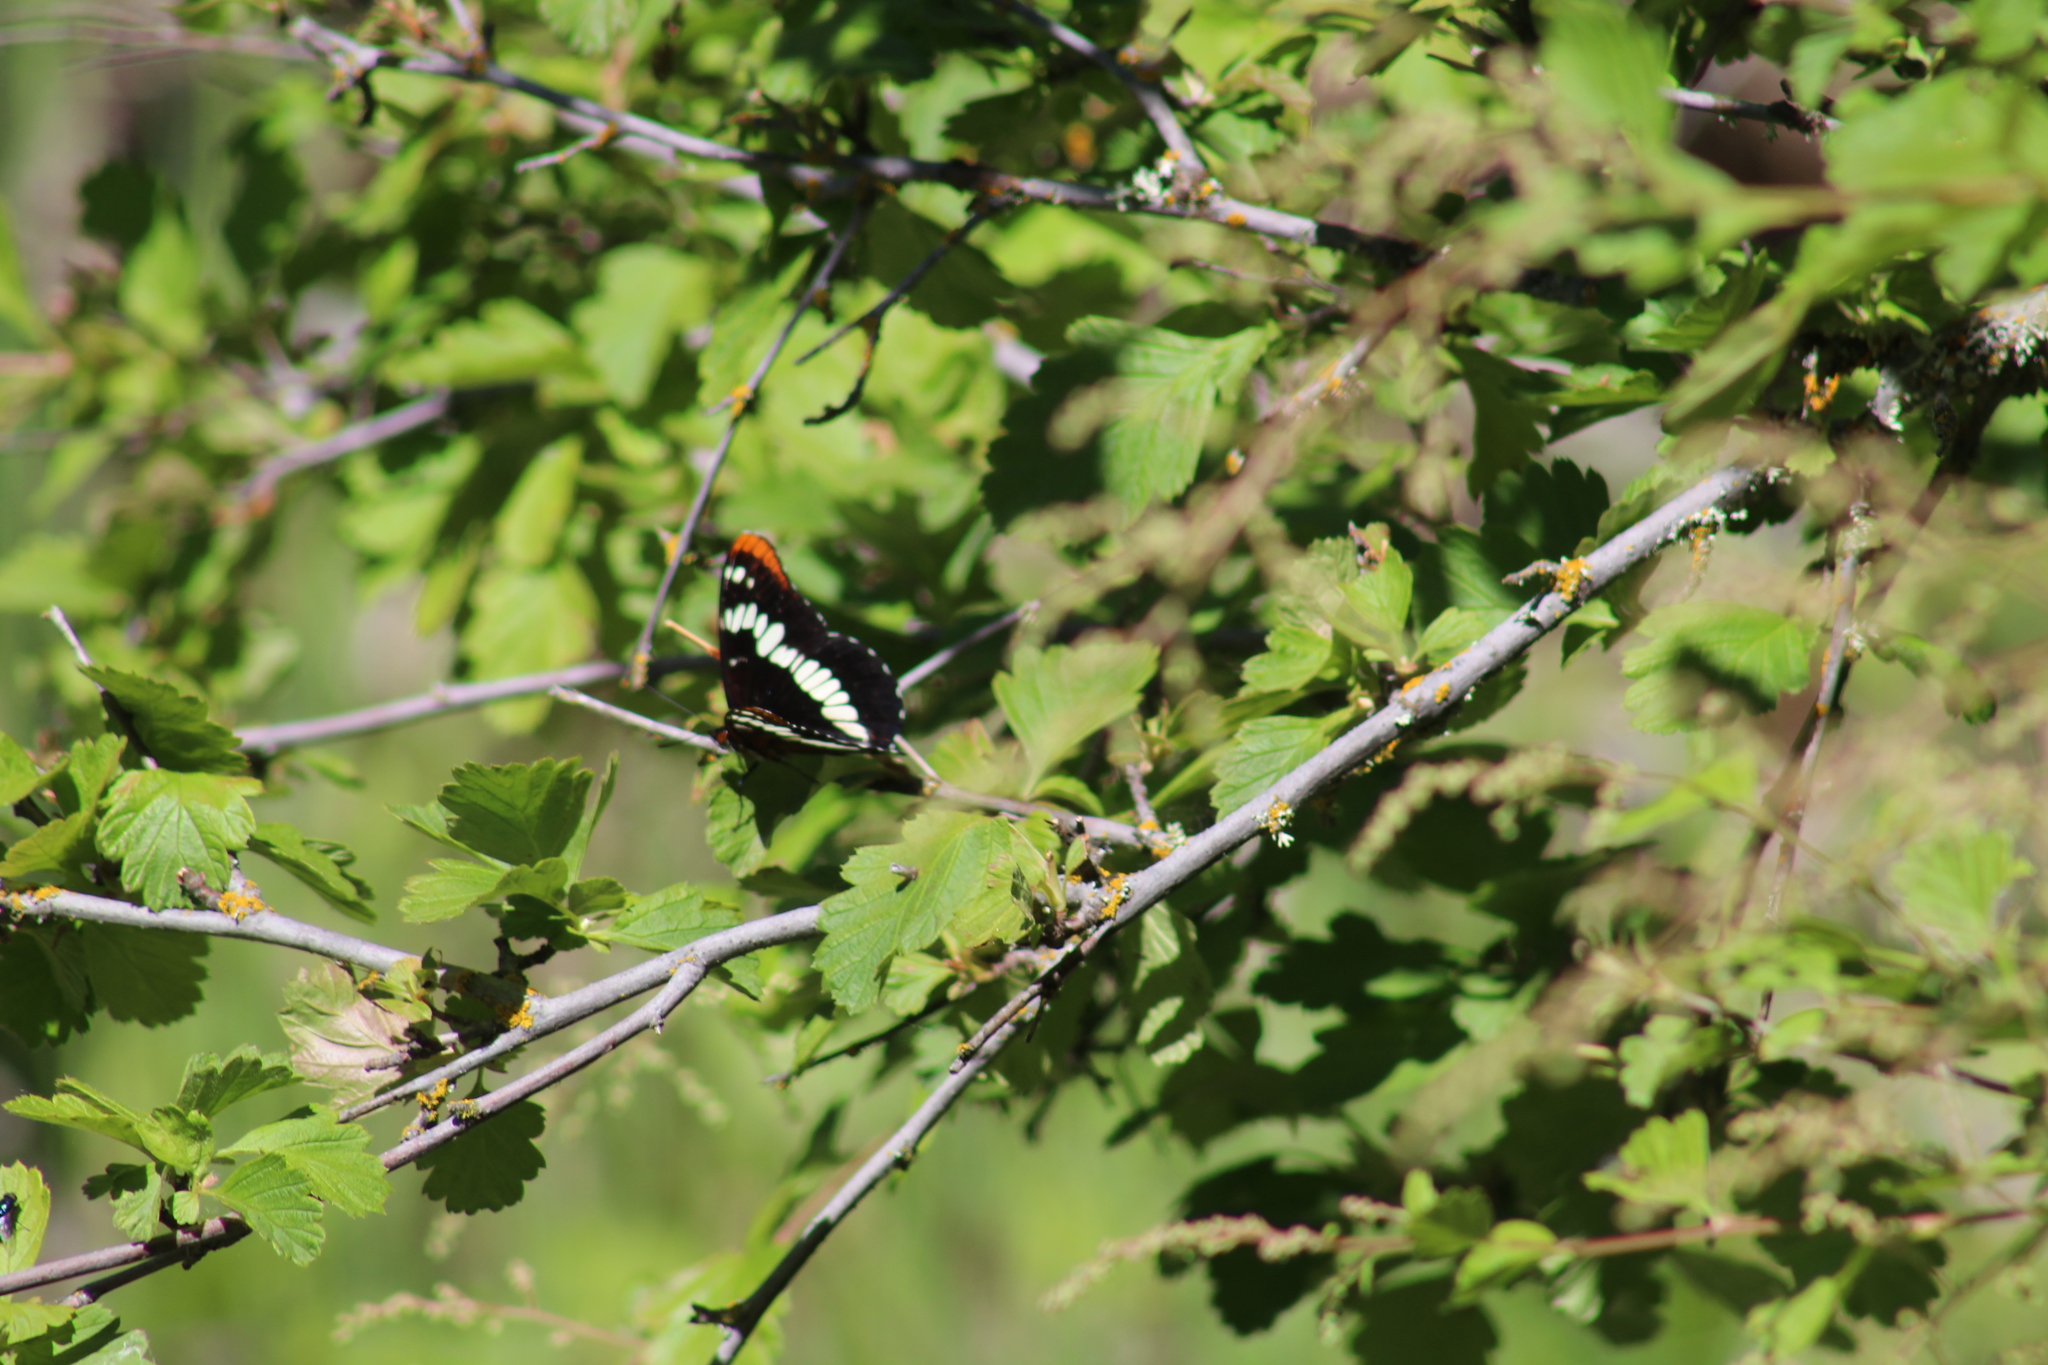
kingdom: Animalia
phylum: Arthropoda
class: Insecta
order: Lepidoptera
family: Nymphalidae
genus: Limenitis
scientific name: Limenitis lorquini
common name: Lorquin's admiral
